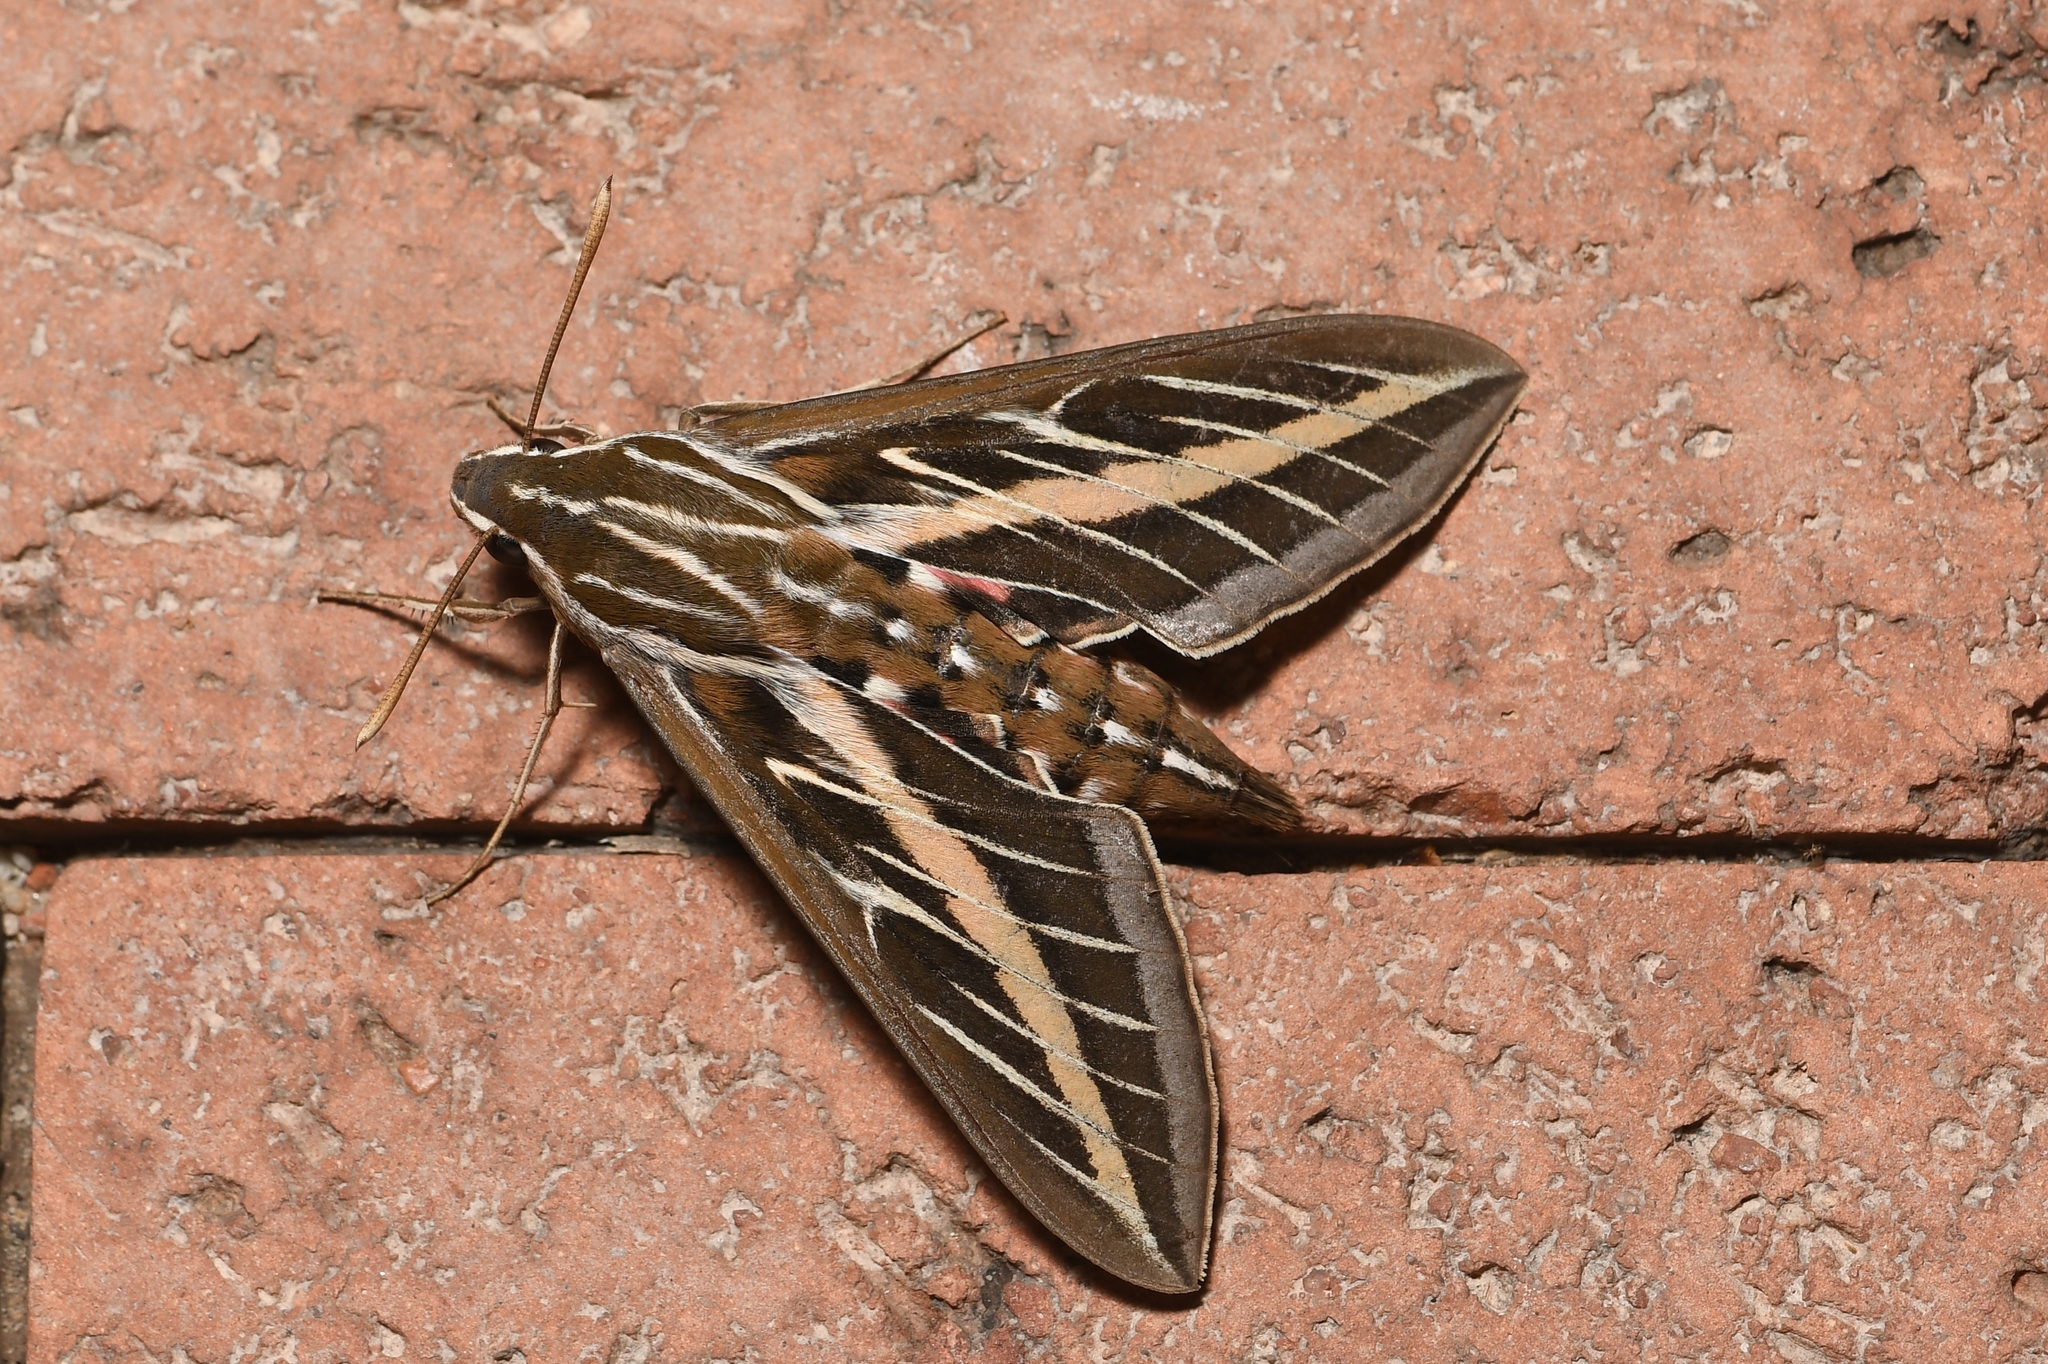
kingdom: Animalia
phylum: Arthropoda
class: Insecta
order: Lepidoptera
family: Sphingidae
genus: Hyles
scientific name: Hyles lineata
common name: White-lined sphinx
